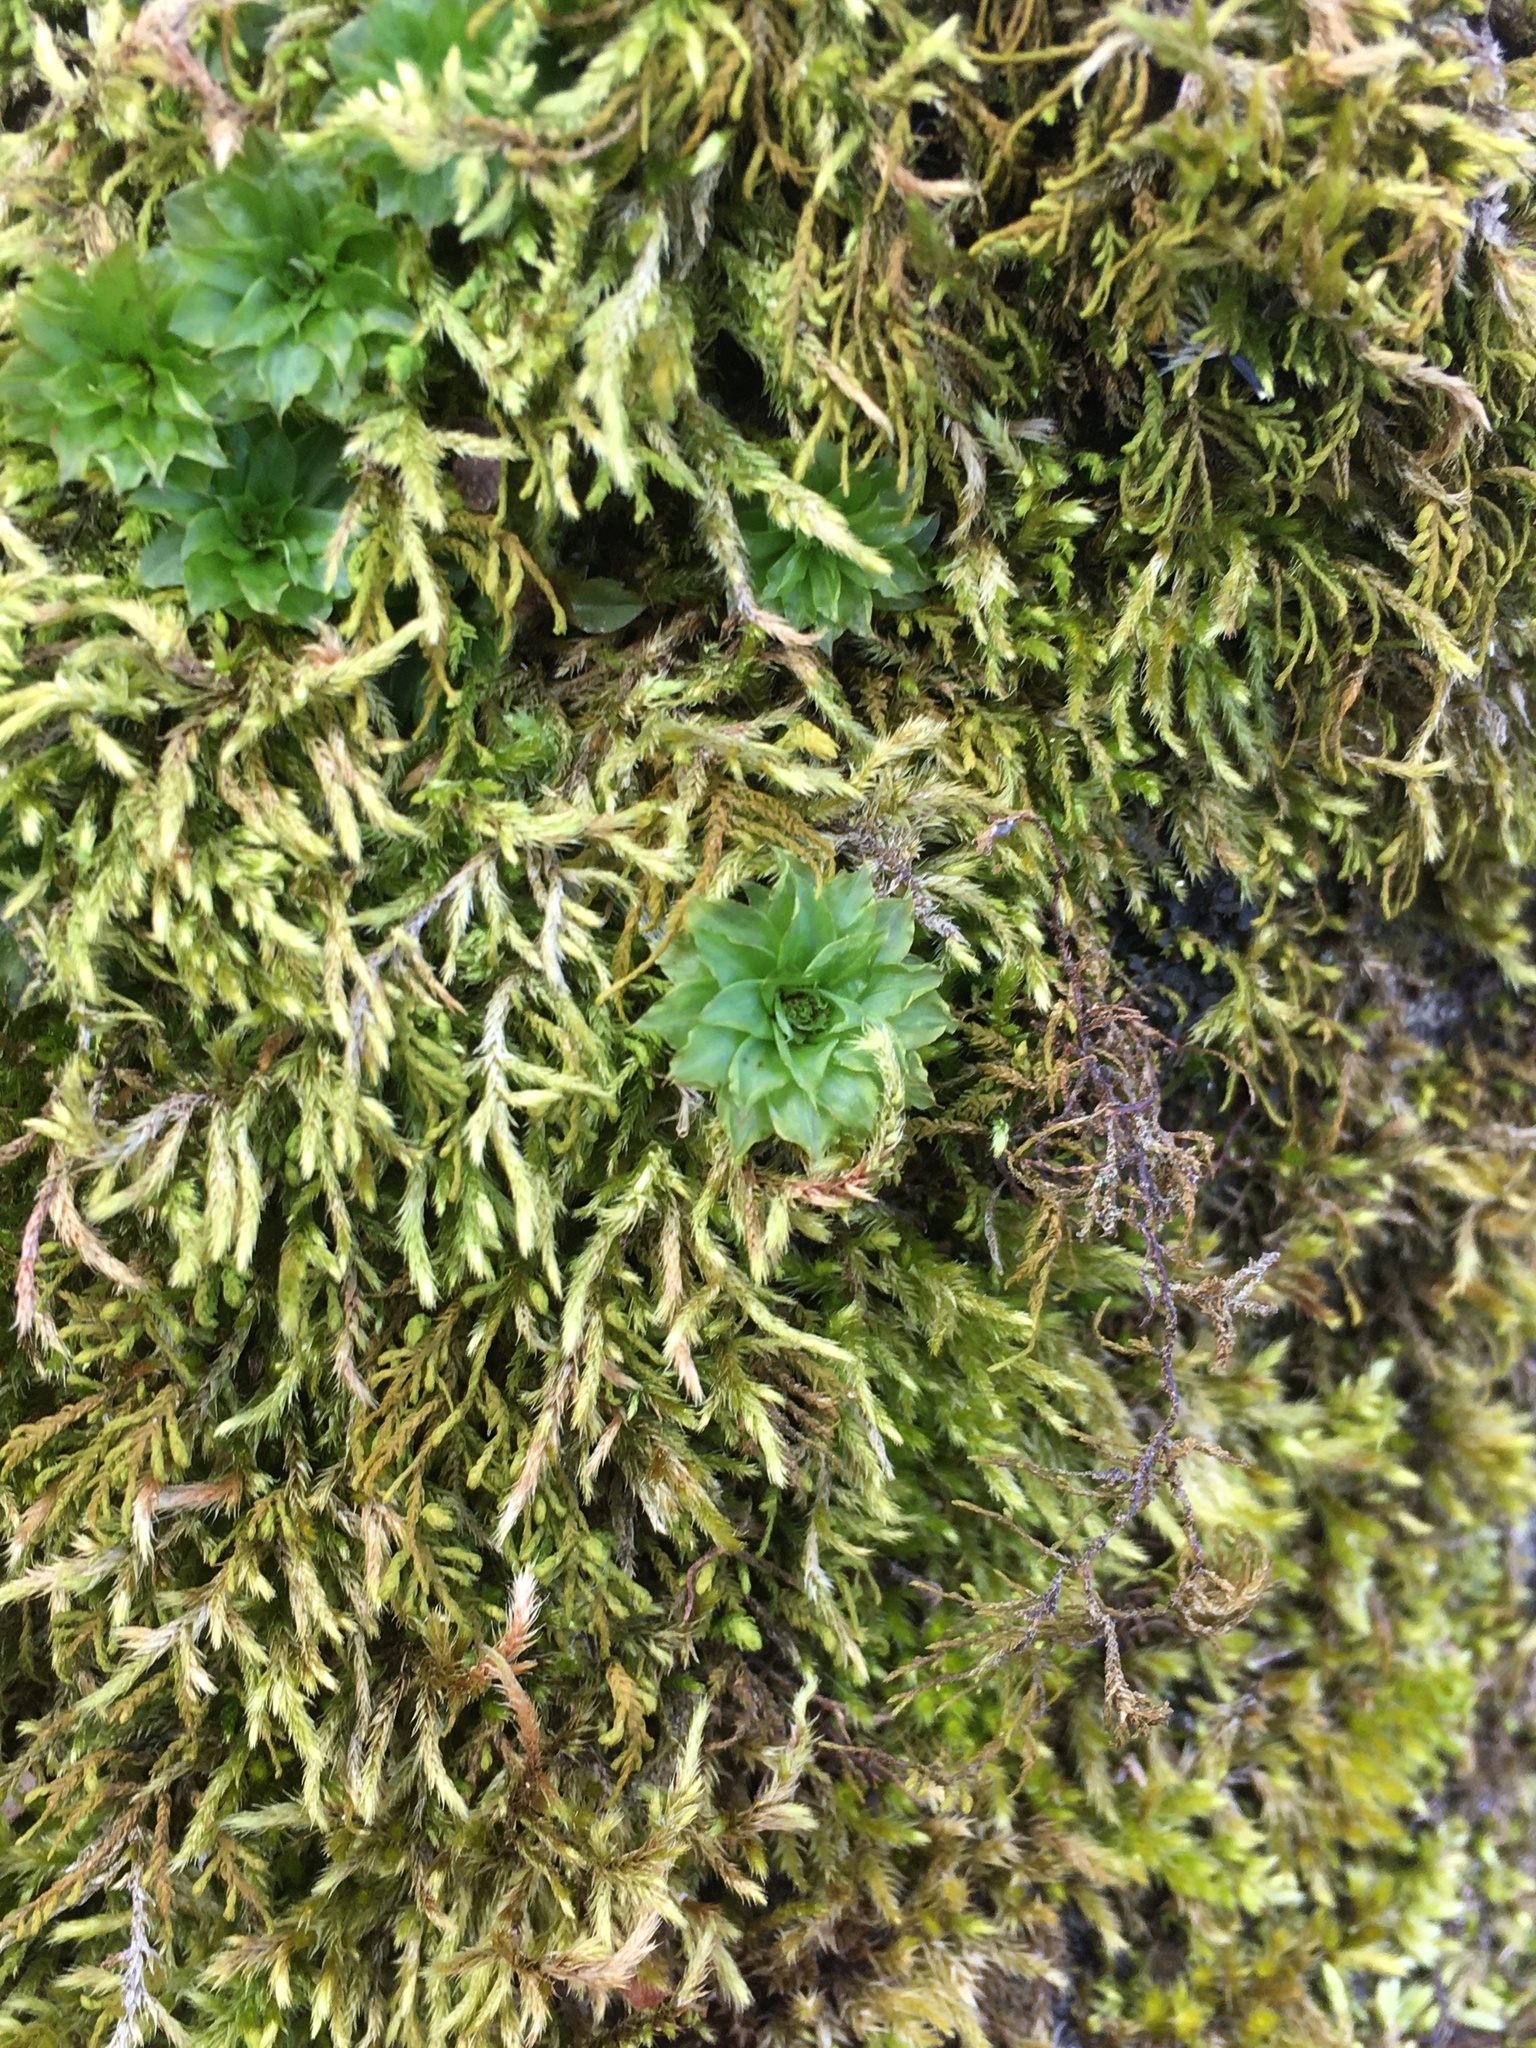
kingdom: Plantae
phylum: Bryophyta
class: Bryopsida
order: Bryales
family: Bryaceae
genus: Rhodobryum
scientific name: Rhodobryum ontariense
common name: Ontario rhodobryum moss
